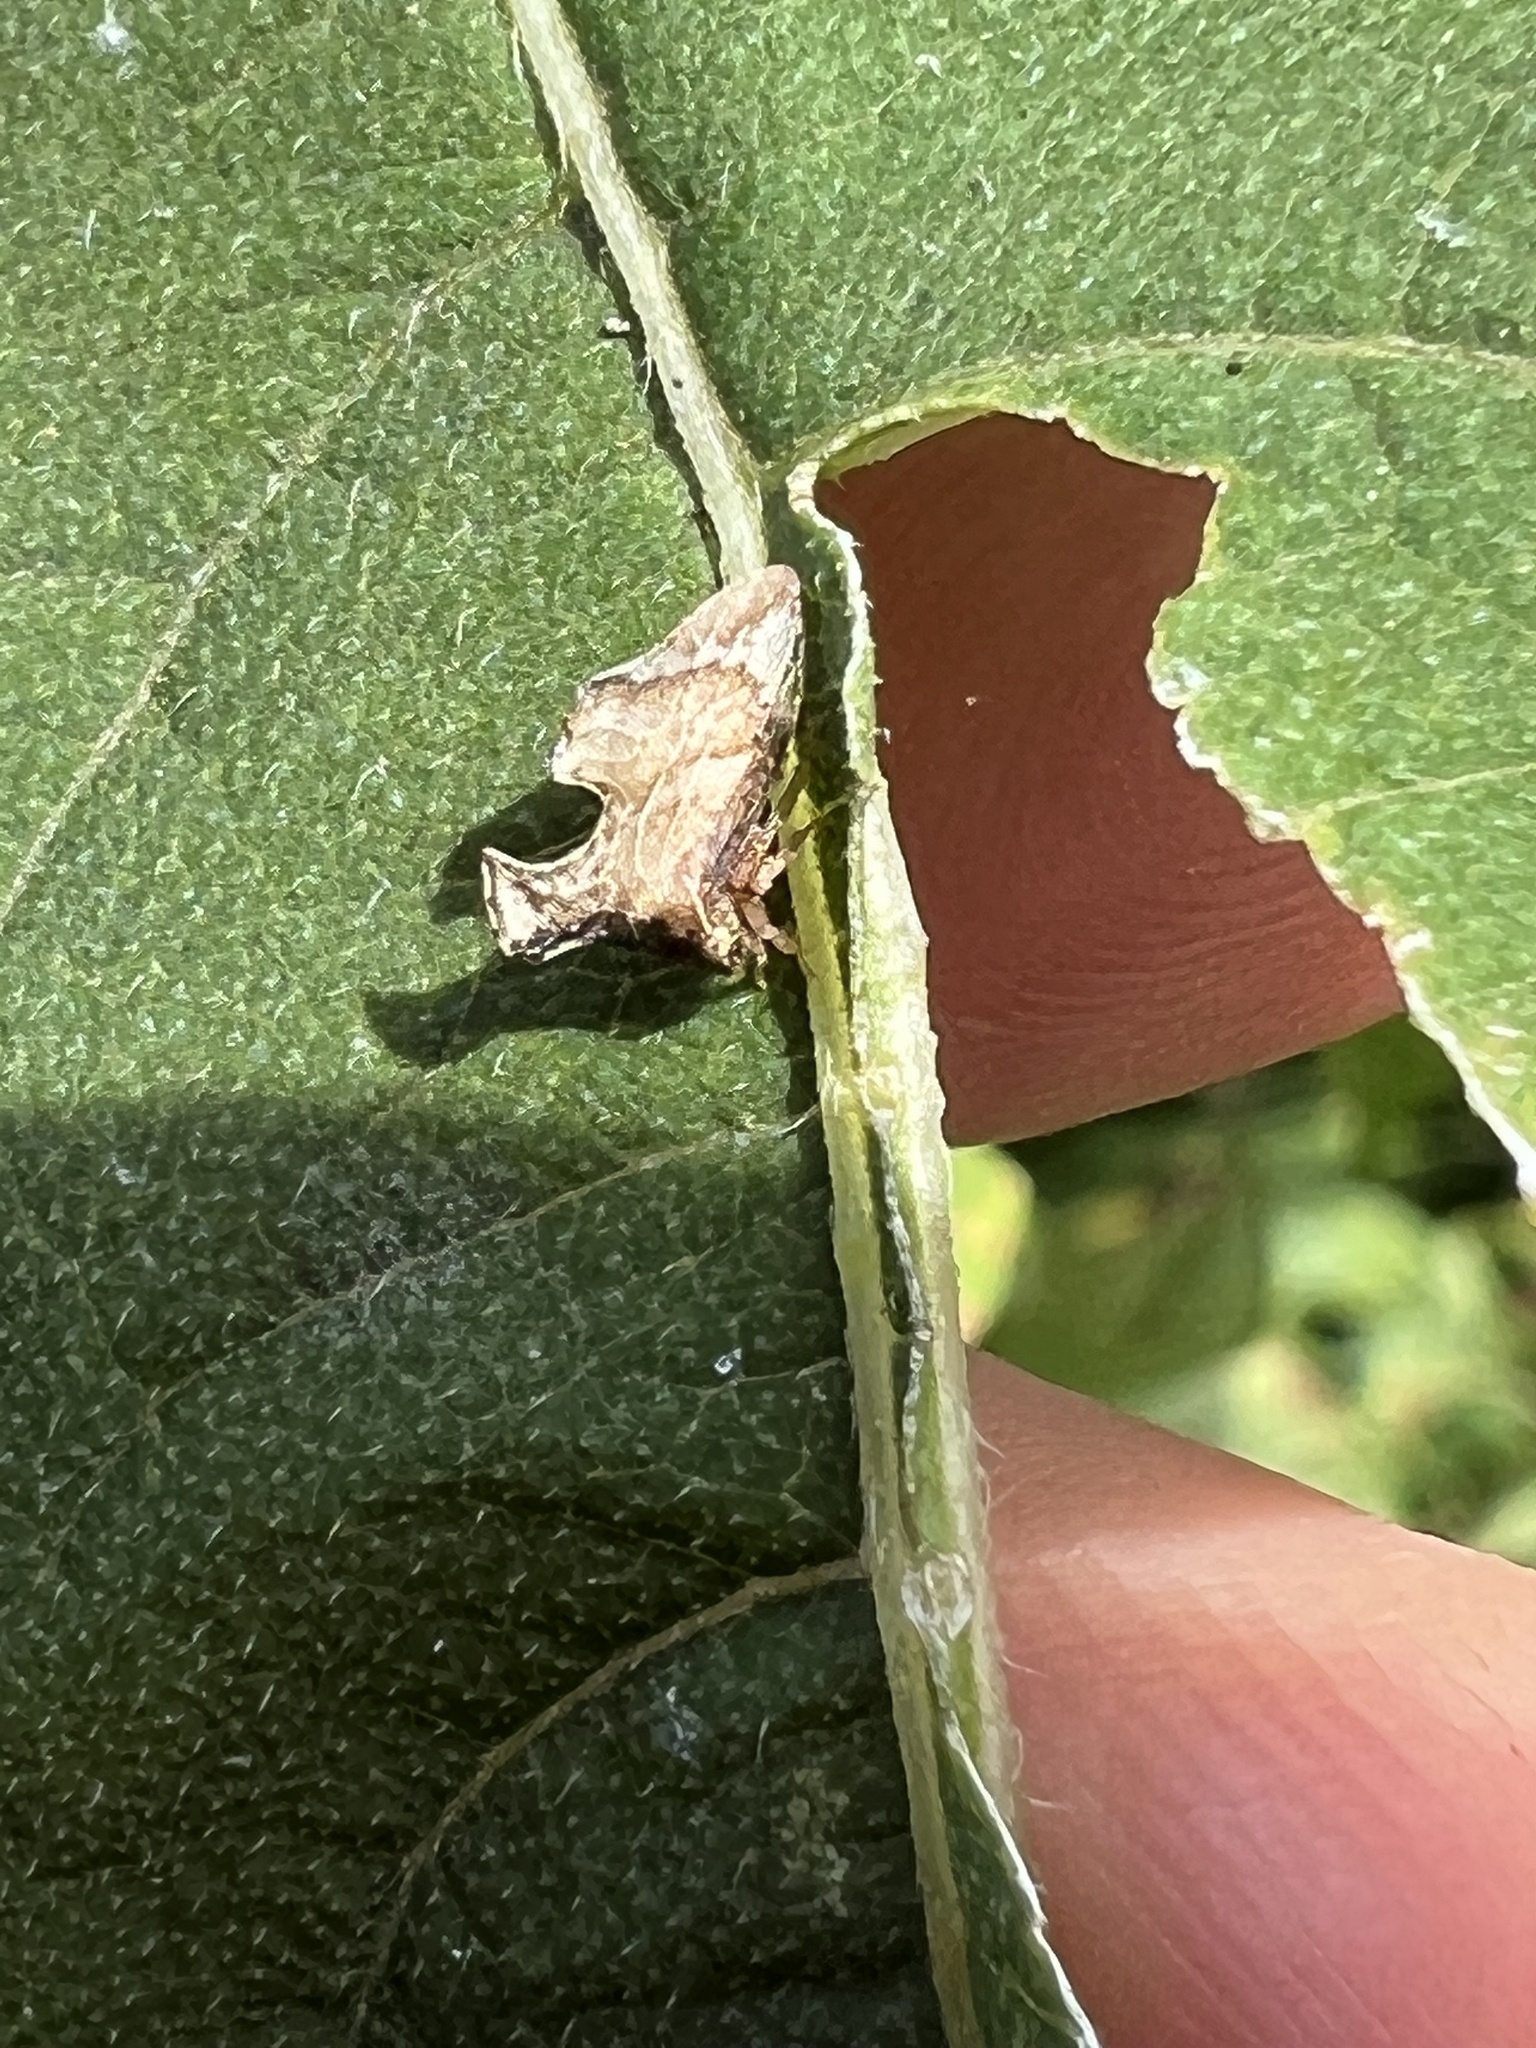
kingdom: Animalia
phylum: Arthropoda
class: Insecta
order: Hemiptera
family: Membracidae
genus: Entylia
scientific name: Entylia carinata
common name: Keeled treehopper
